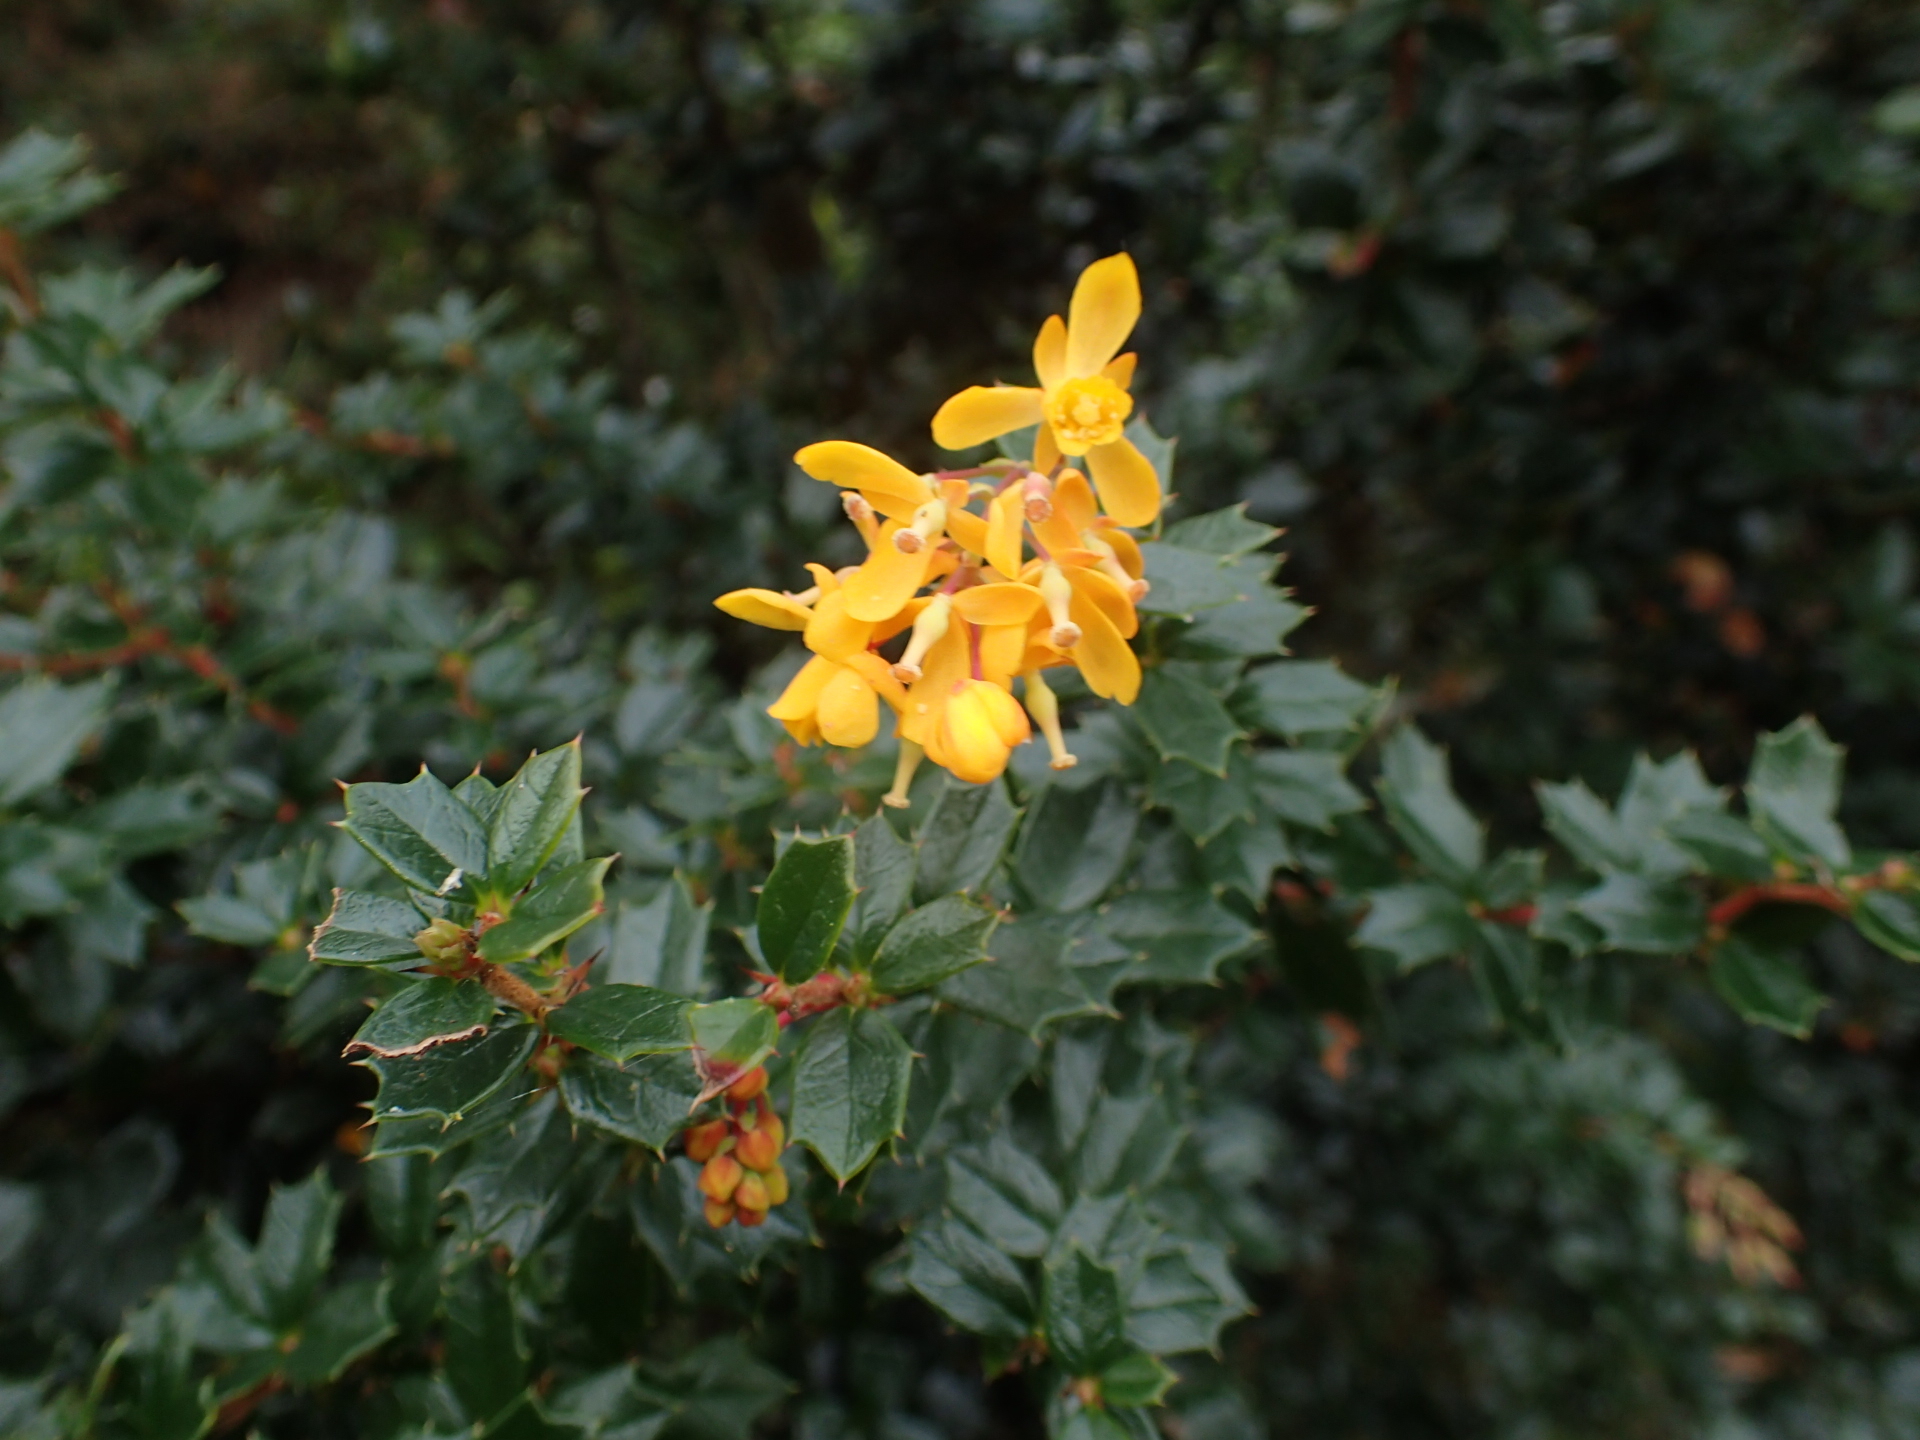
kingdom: Plantae
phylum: Tracheophyta
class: Magnoliopsida
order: Ranunculales
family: Berberidaceae
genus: Berberis
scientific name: Berberis darwinii
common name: Darwin's barberry
